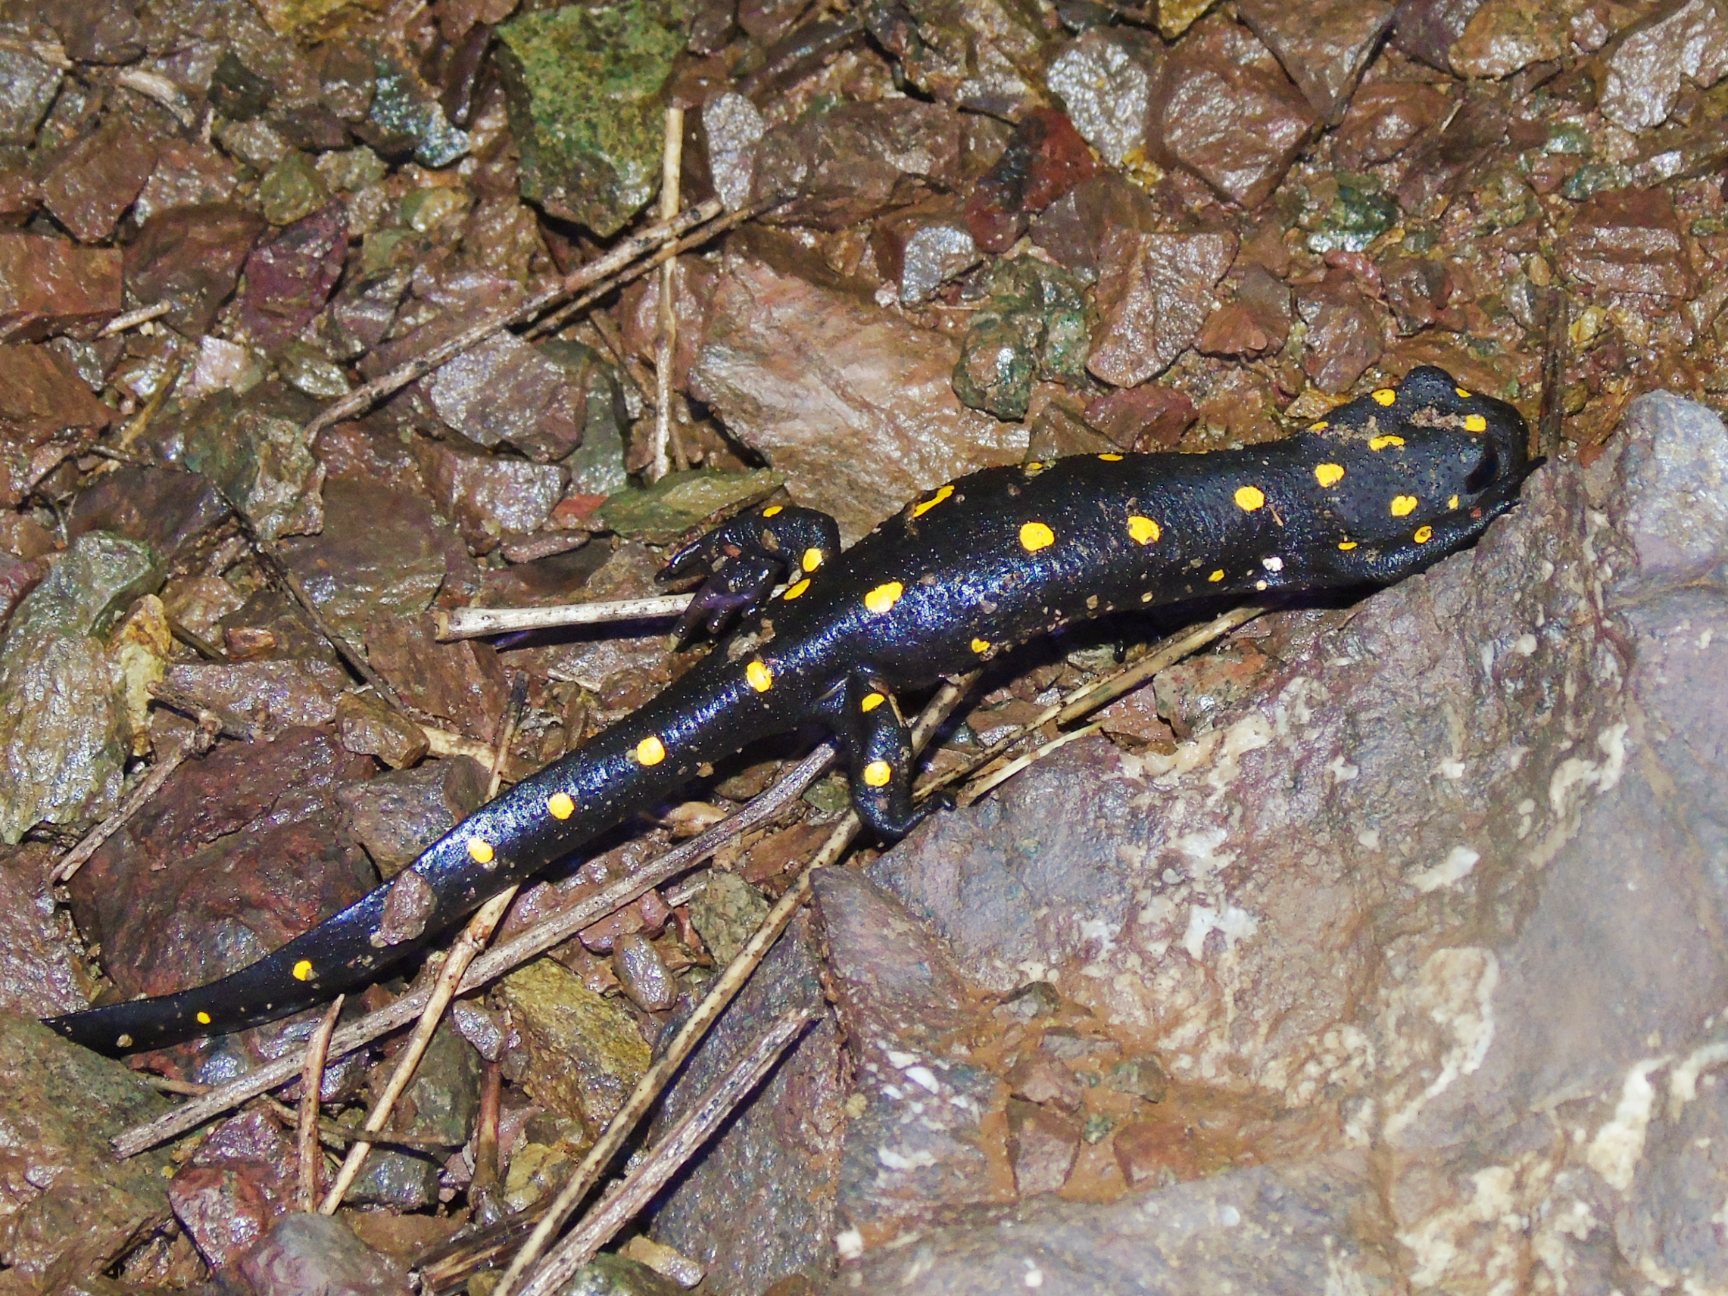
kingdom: Animalia
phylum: Chordata
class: Amphibia
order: Caudata
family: Salamandridae
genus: Neurergus
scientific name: Neurergus barani
